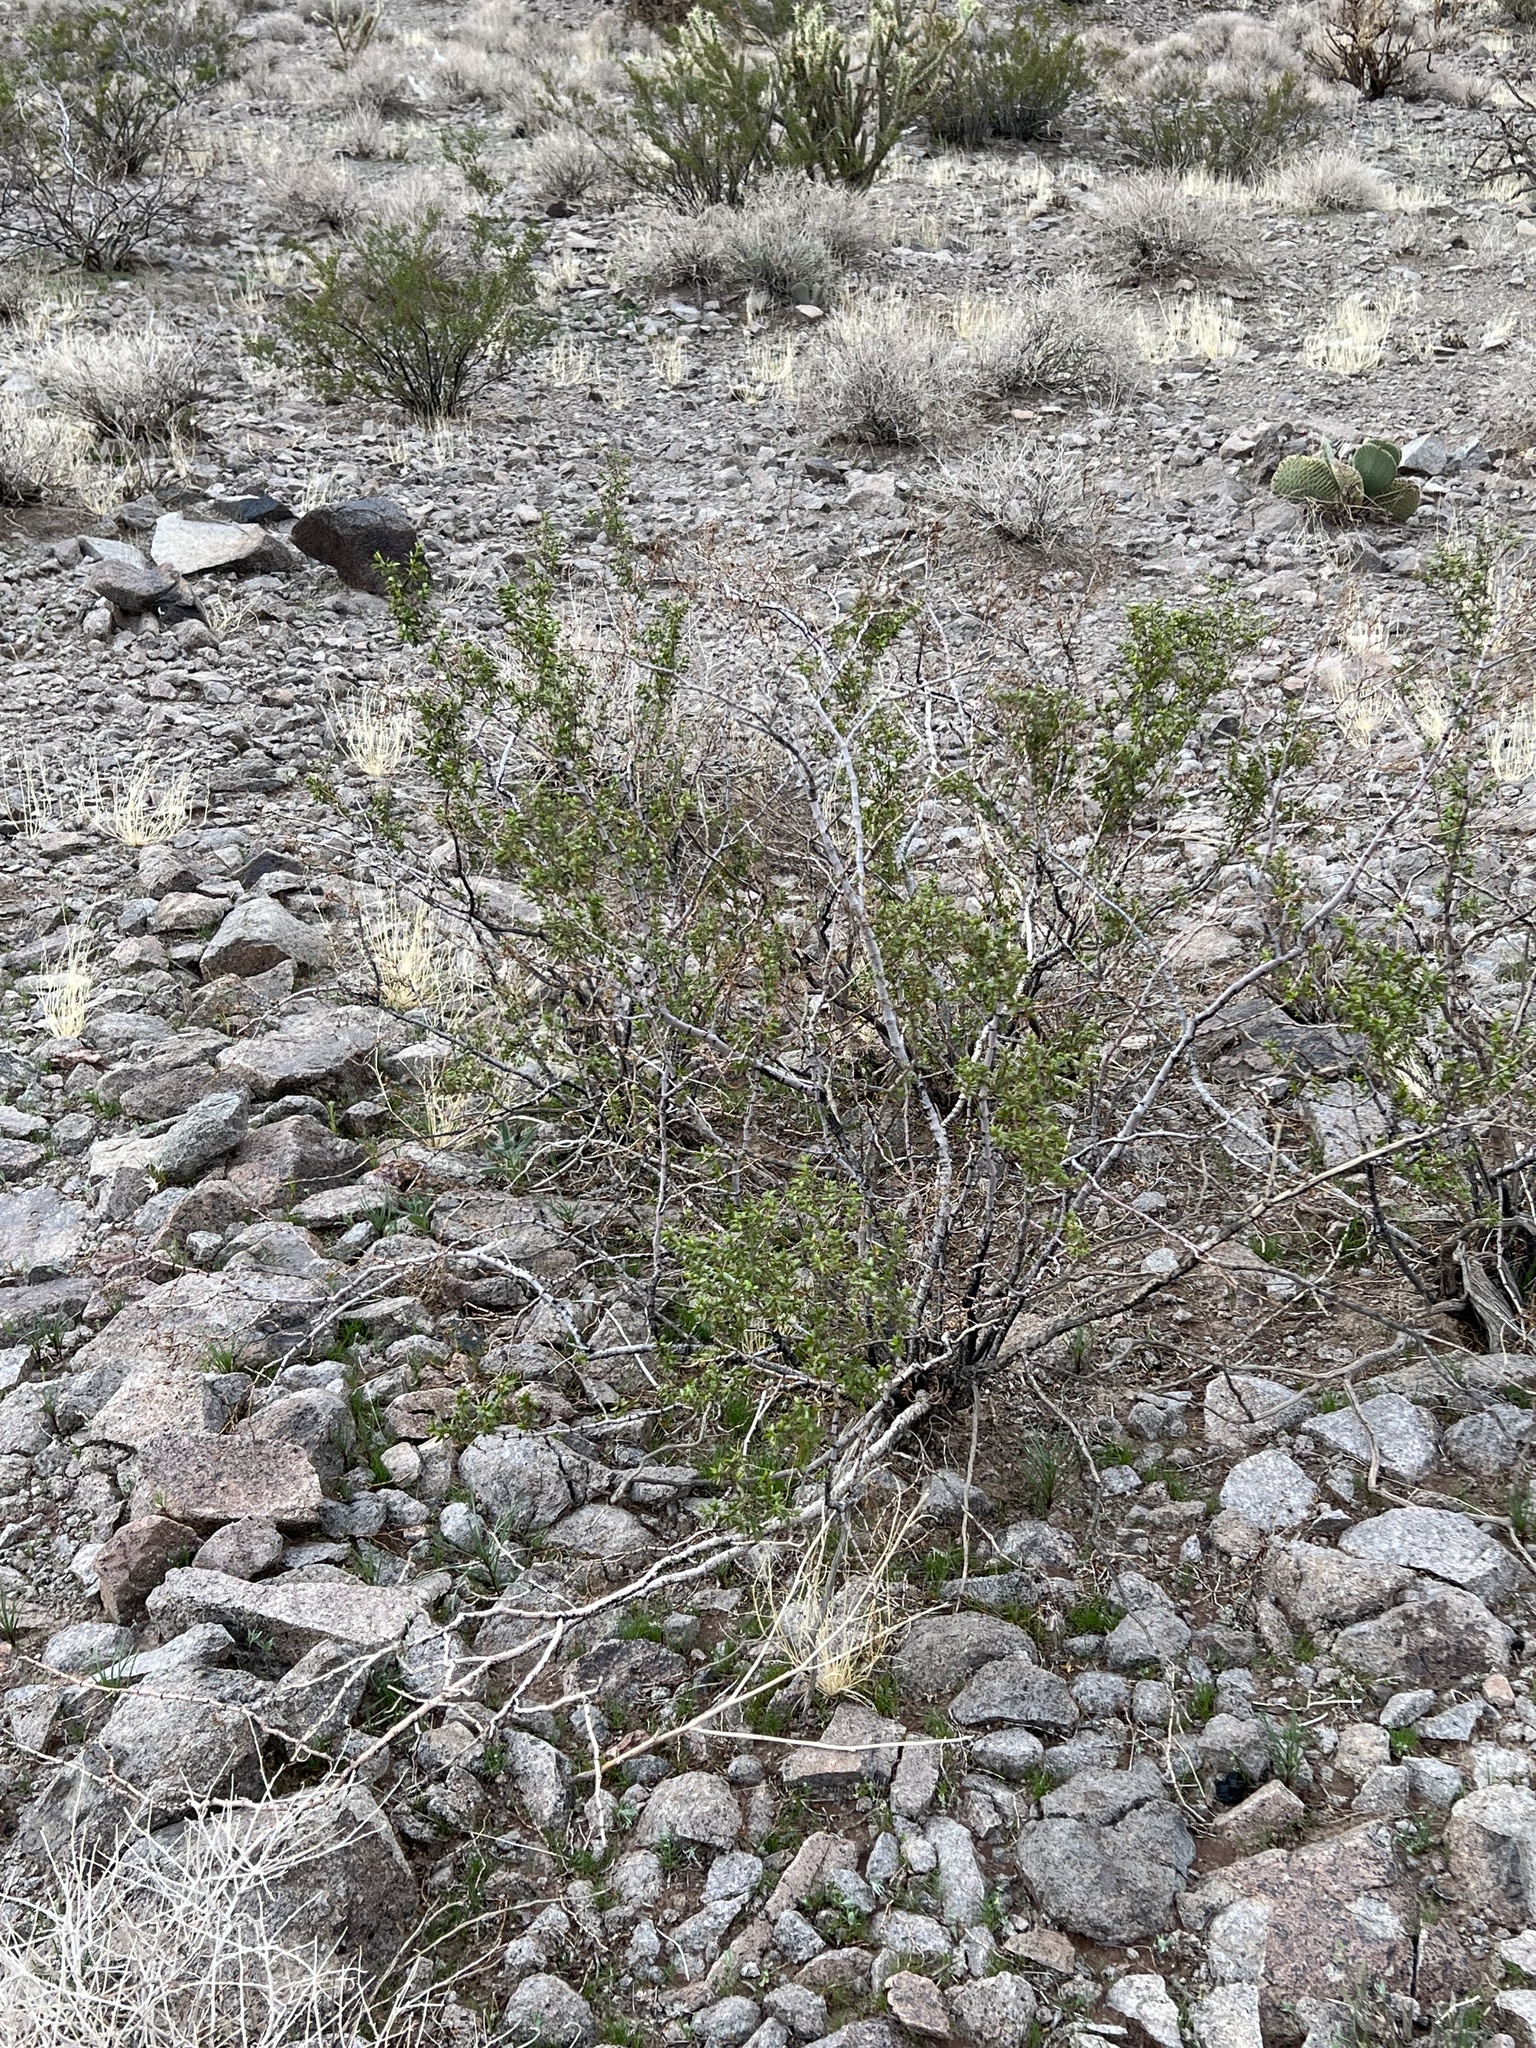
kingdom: Plantae
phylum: Tracheophyta
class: Magnoliopsida
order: Zygophyllales
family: Zygophyllaceae
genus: Larrea
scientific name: Larrea tridentata
